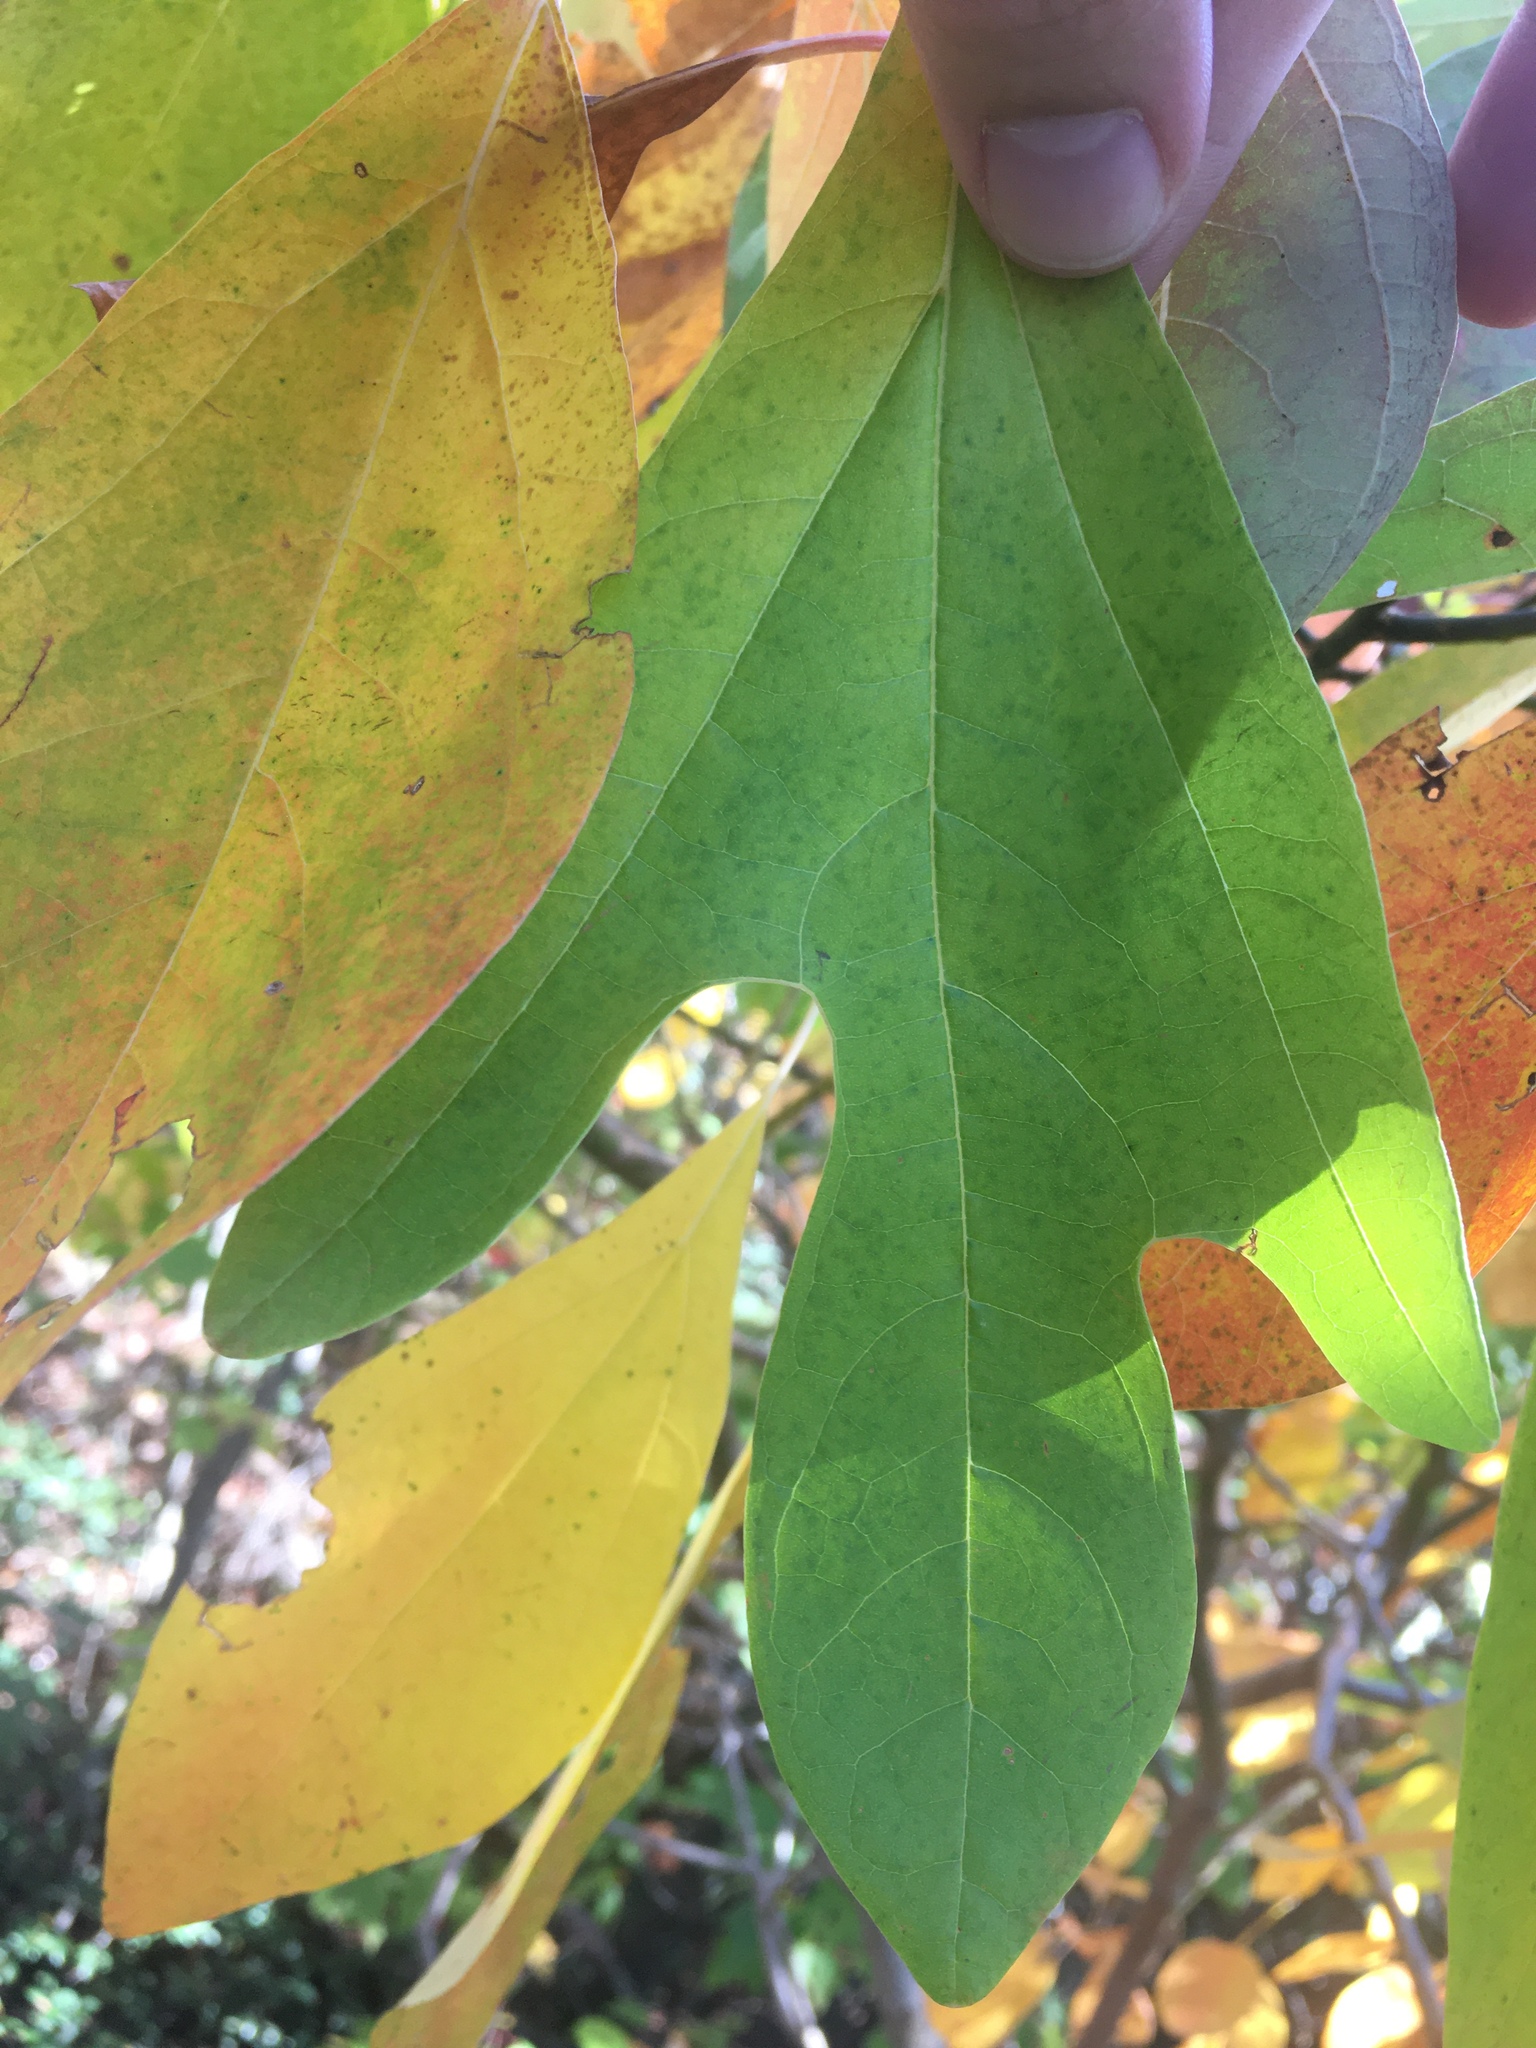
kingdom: Plantae
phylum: Tracheophyta
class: Magnoliopsida
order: Laurales
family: Lauraceae
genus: Sassafras
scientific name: Sassafras albidum
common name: Sassafras
